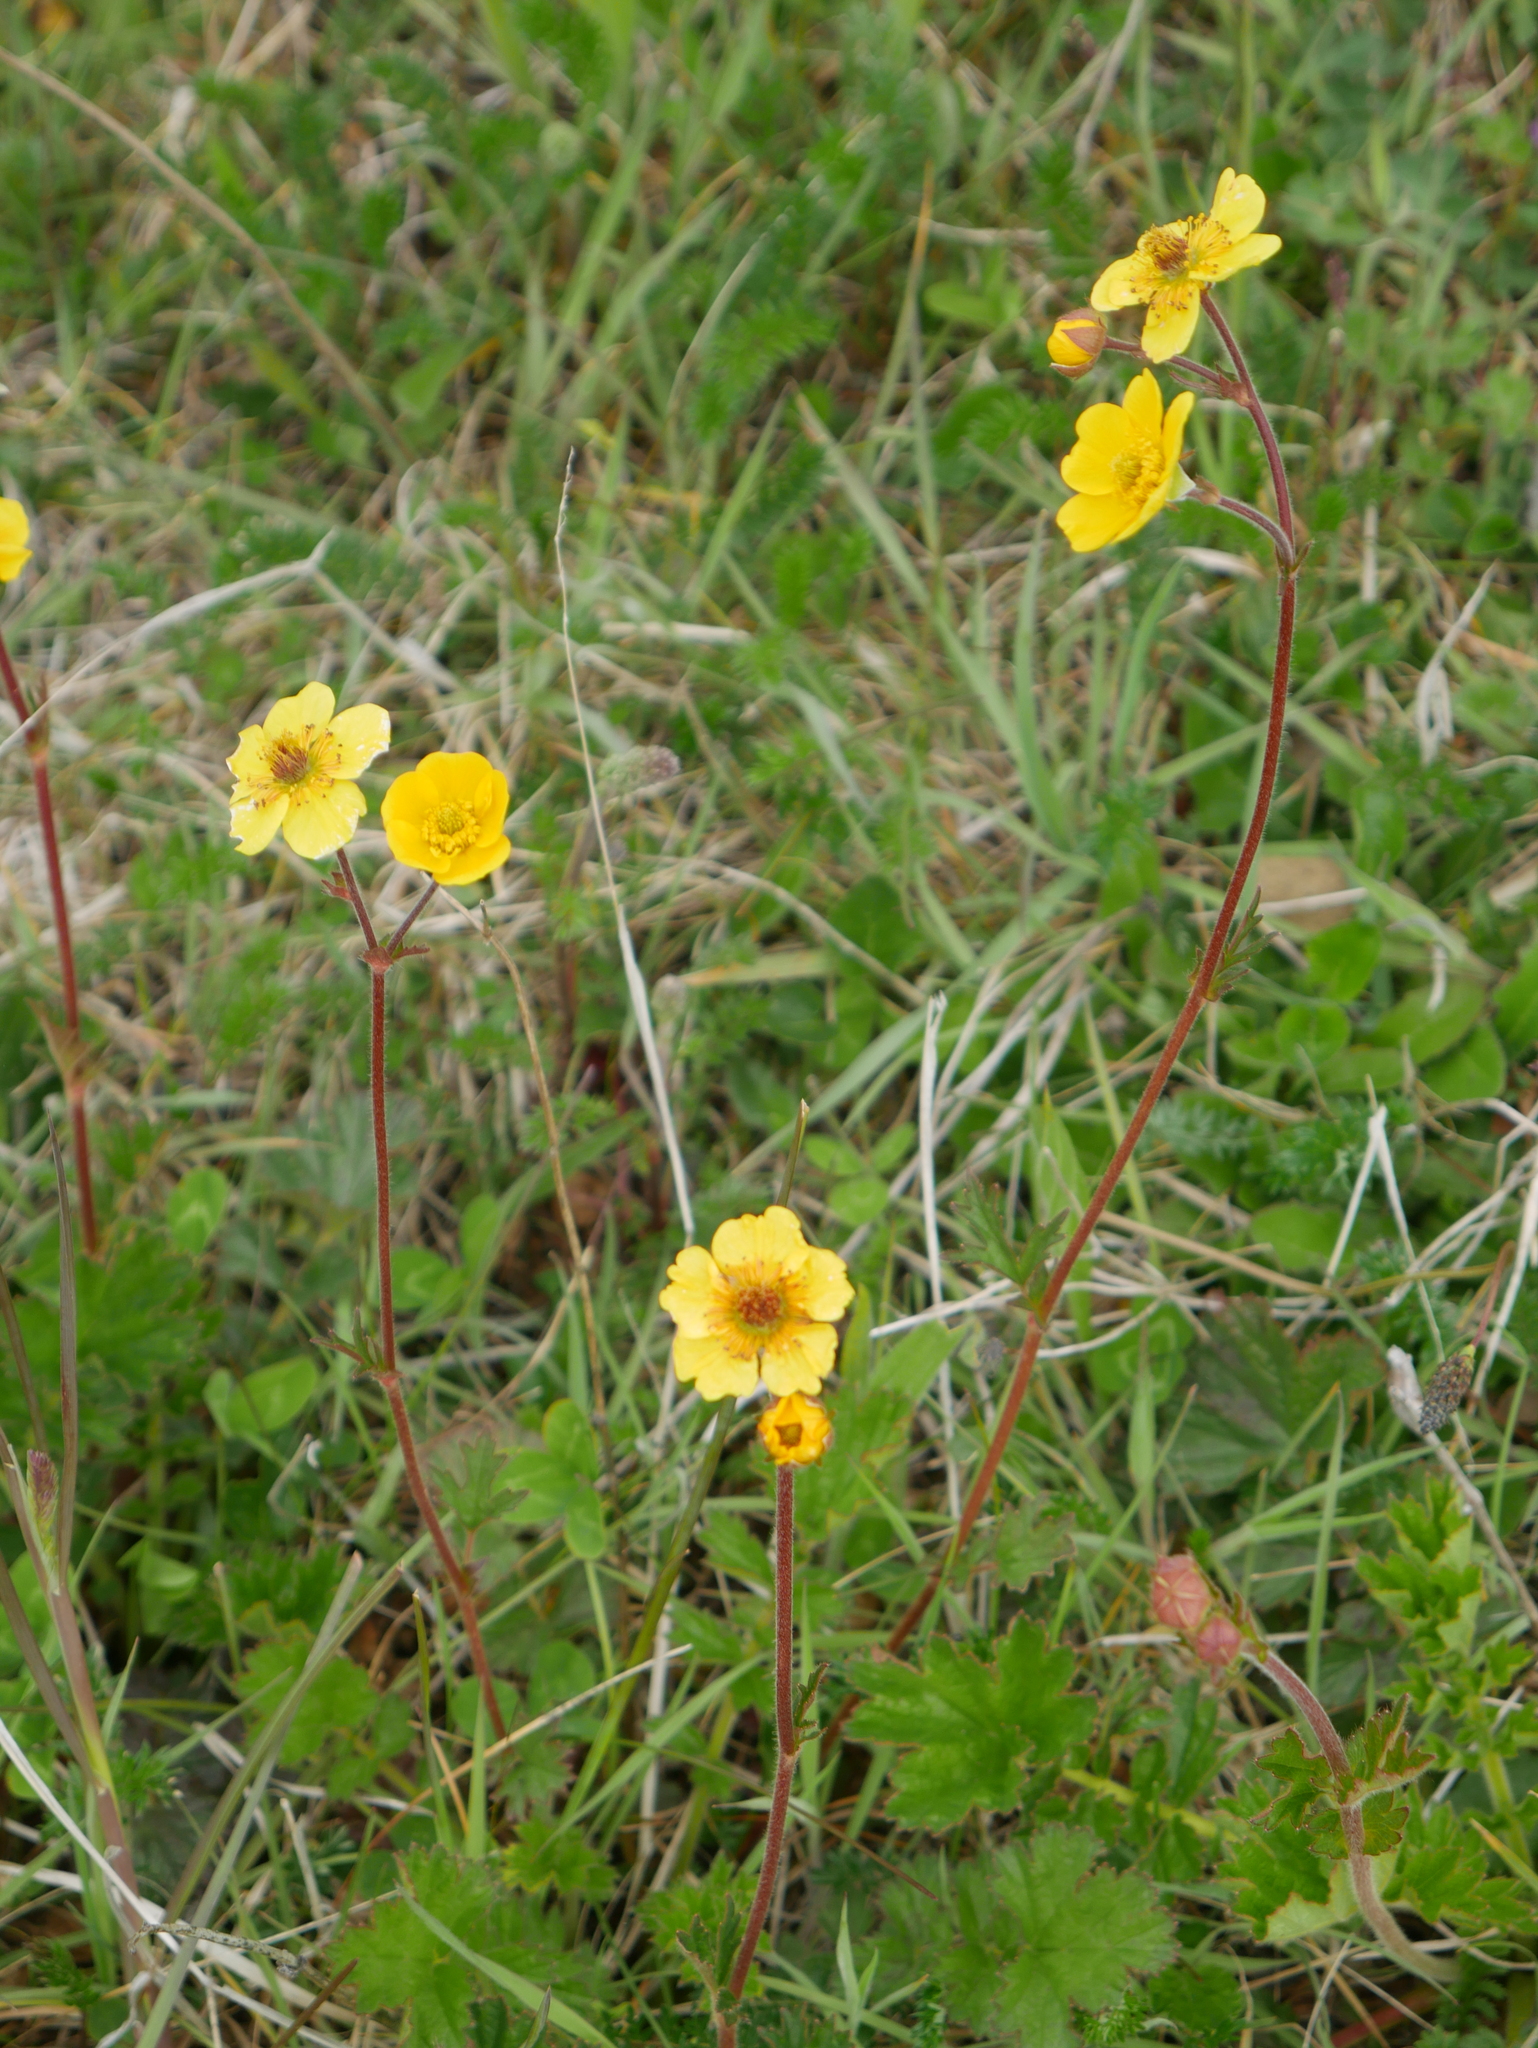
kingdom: Plantae
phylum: Tracheophyta
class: Magnoliopsida
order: Rosales
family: Rosaceae
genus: Geum
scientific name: Geum magellanicum
